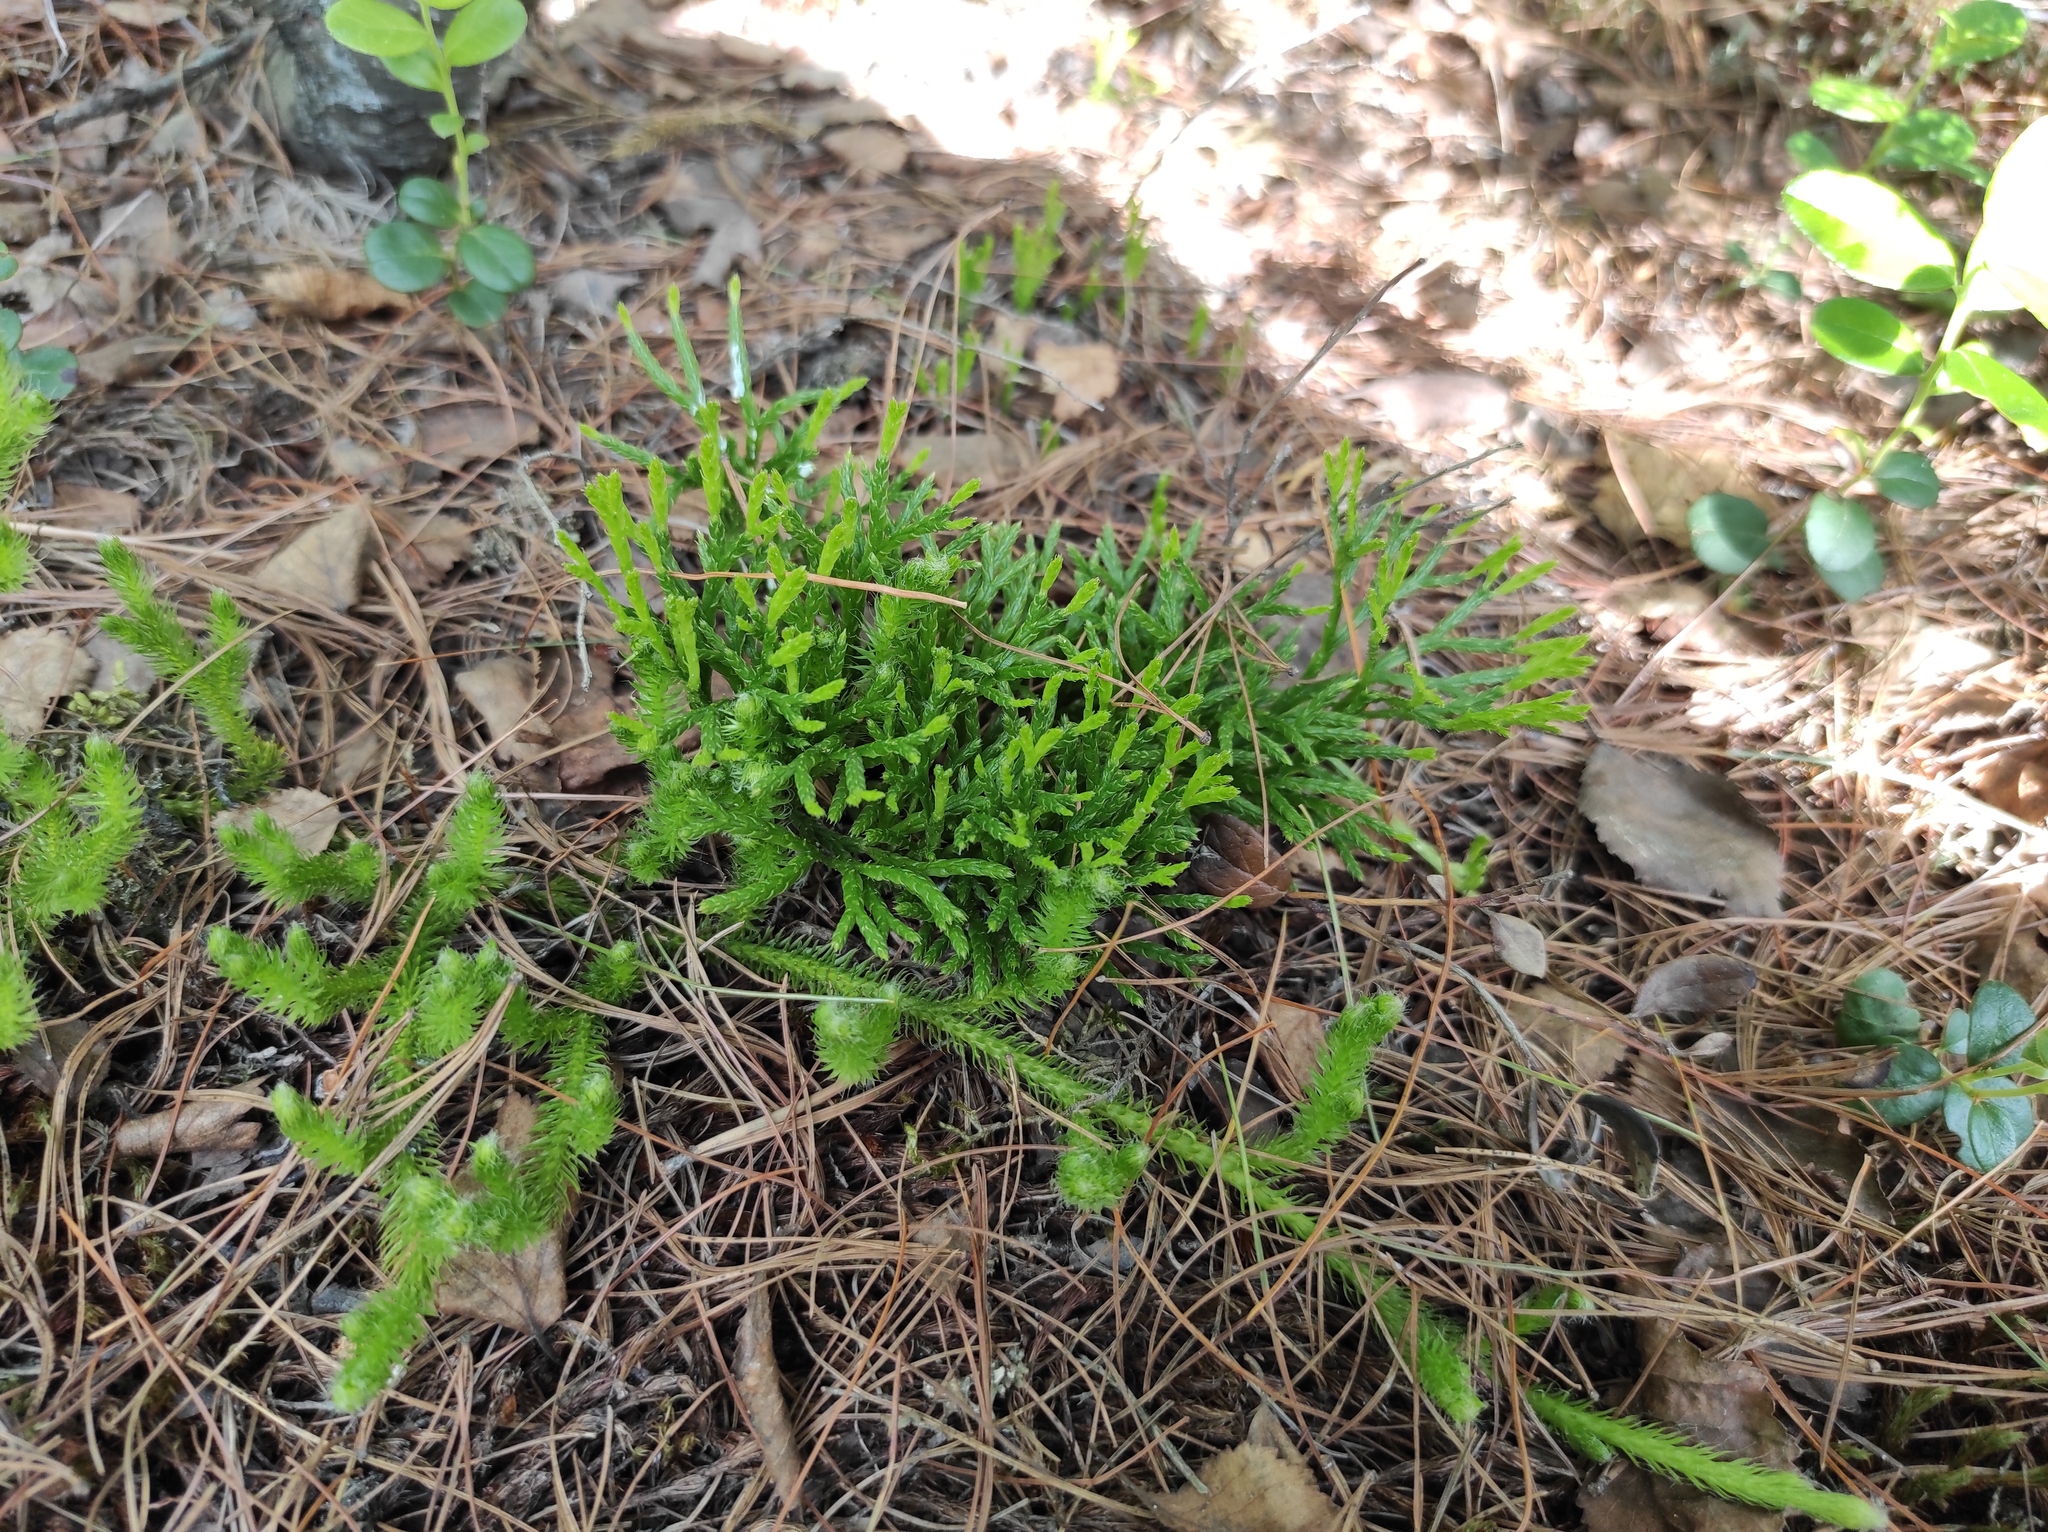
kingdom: Plantae
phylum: Tracheophyta
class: Lycopodiopsida
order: Lycopodiales
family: Lycopodiaceae
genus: Lycopodium
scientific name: Lycopodium clavatum
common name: Stag's-horn clubmoss
